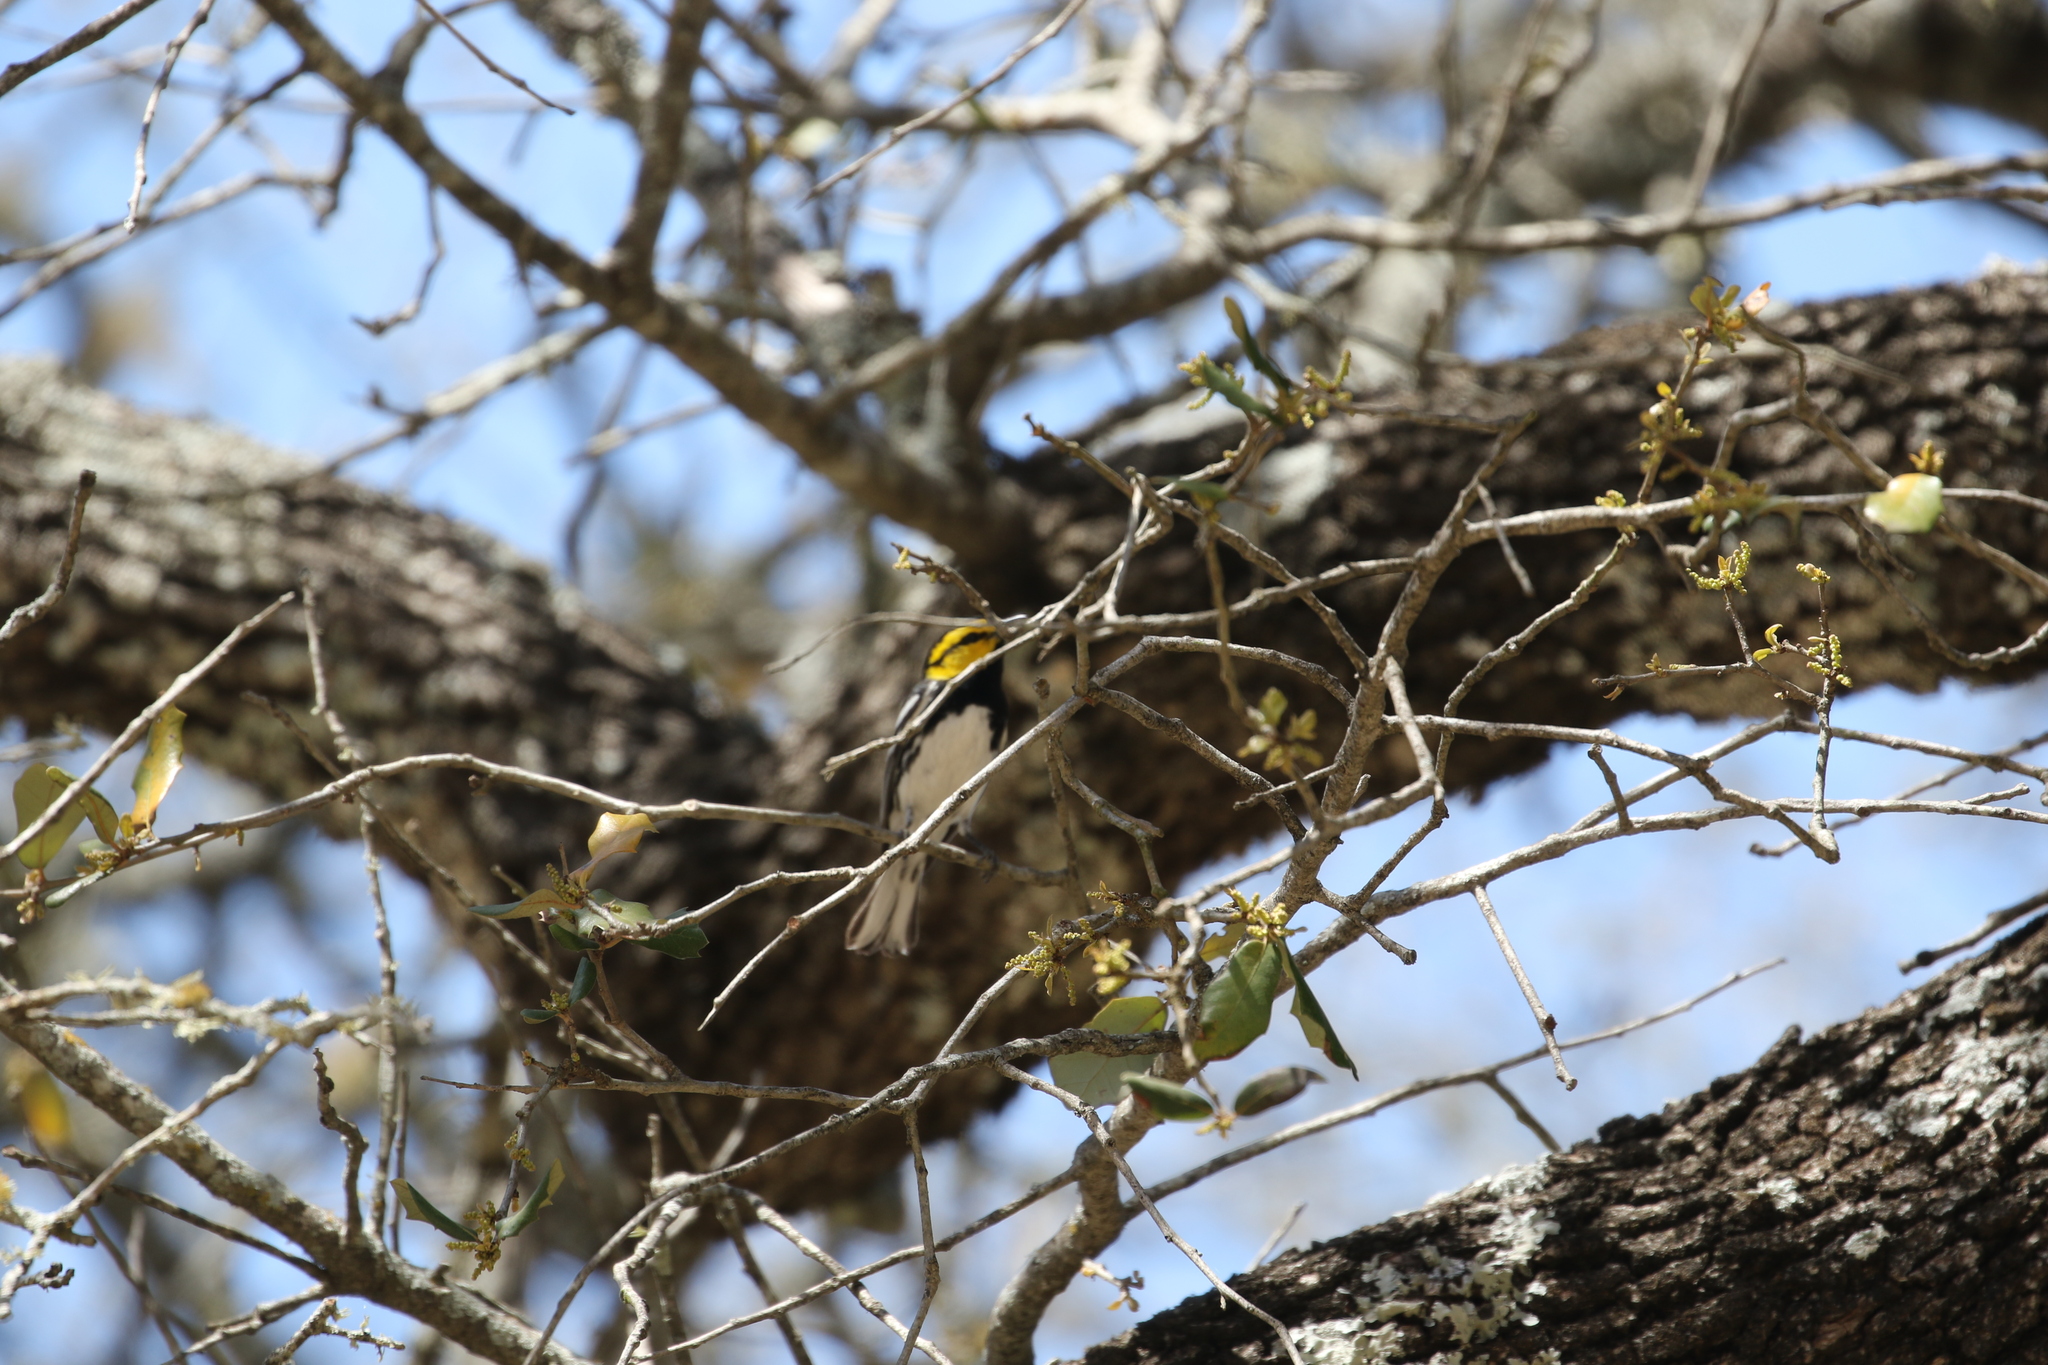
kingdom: Animalia
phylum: Chordata
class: Aves
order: Passeriformes
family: Parulidae
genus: Setophaga
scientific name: Setophaga chrysoparia
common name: Golden-cheeked warbler
